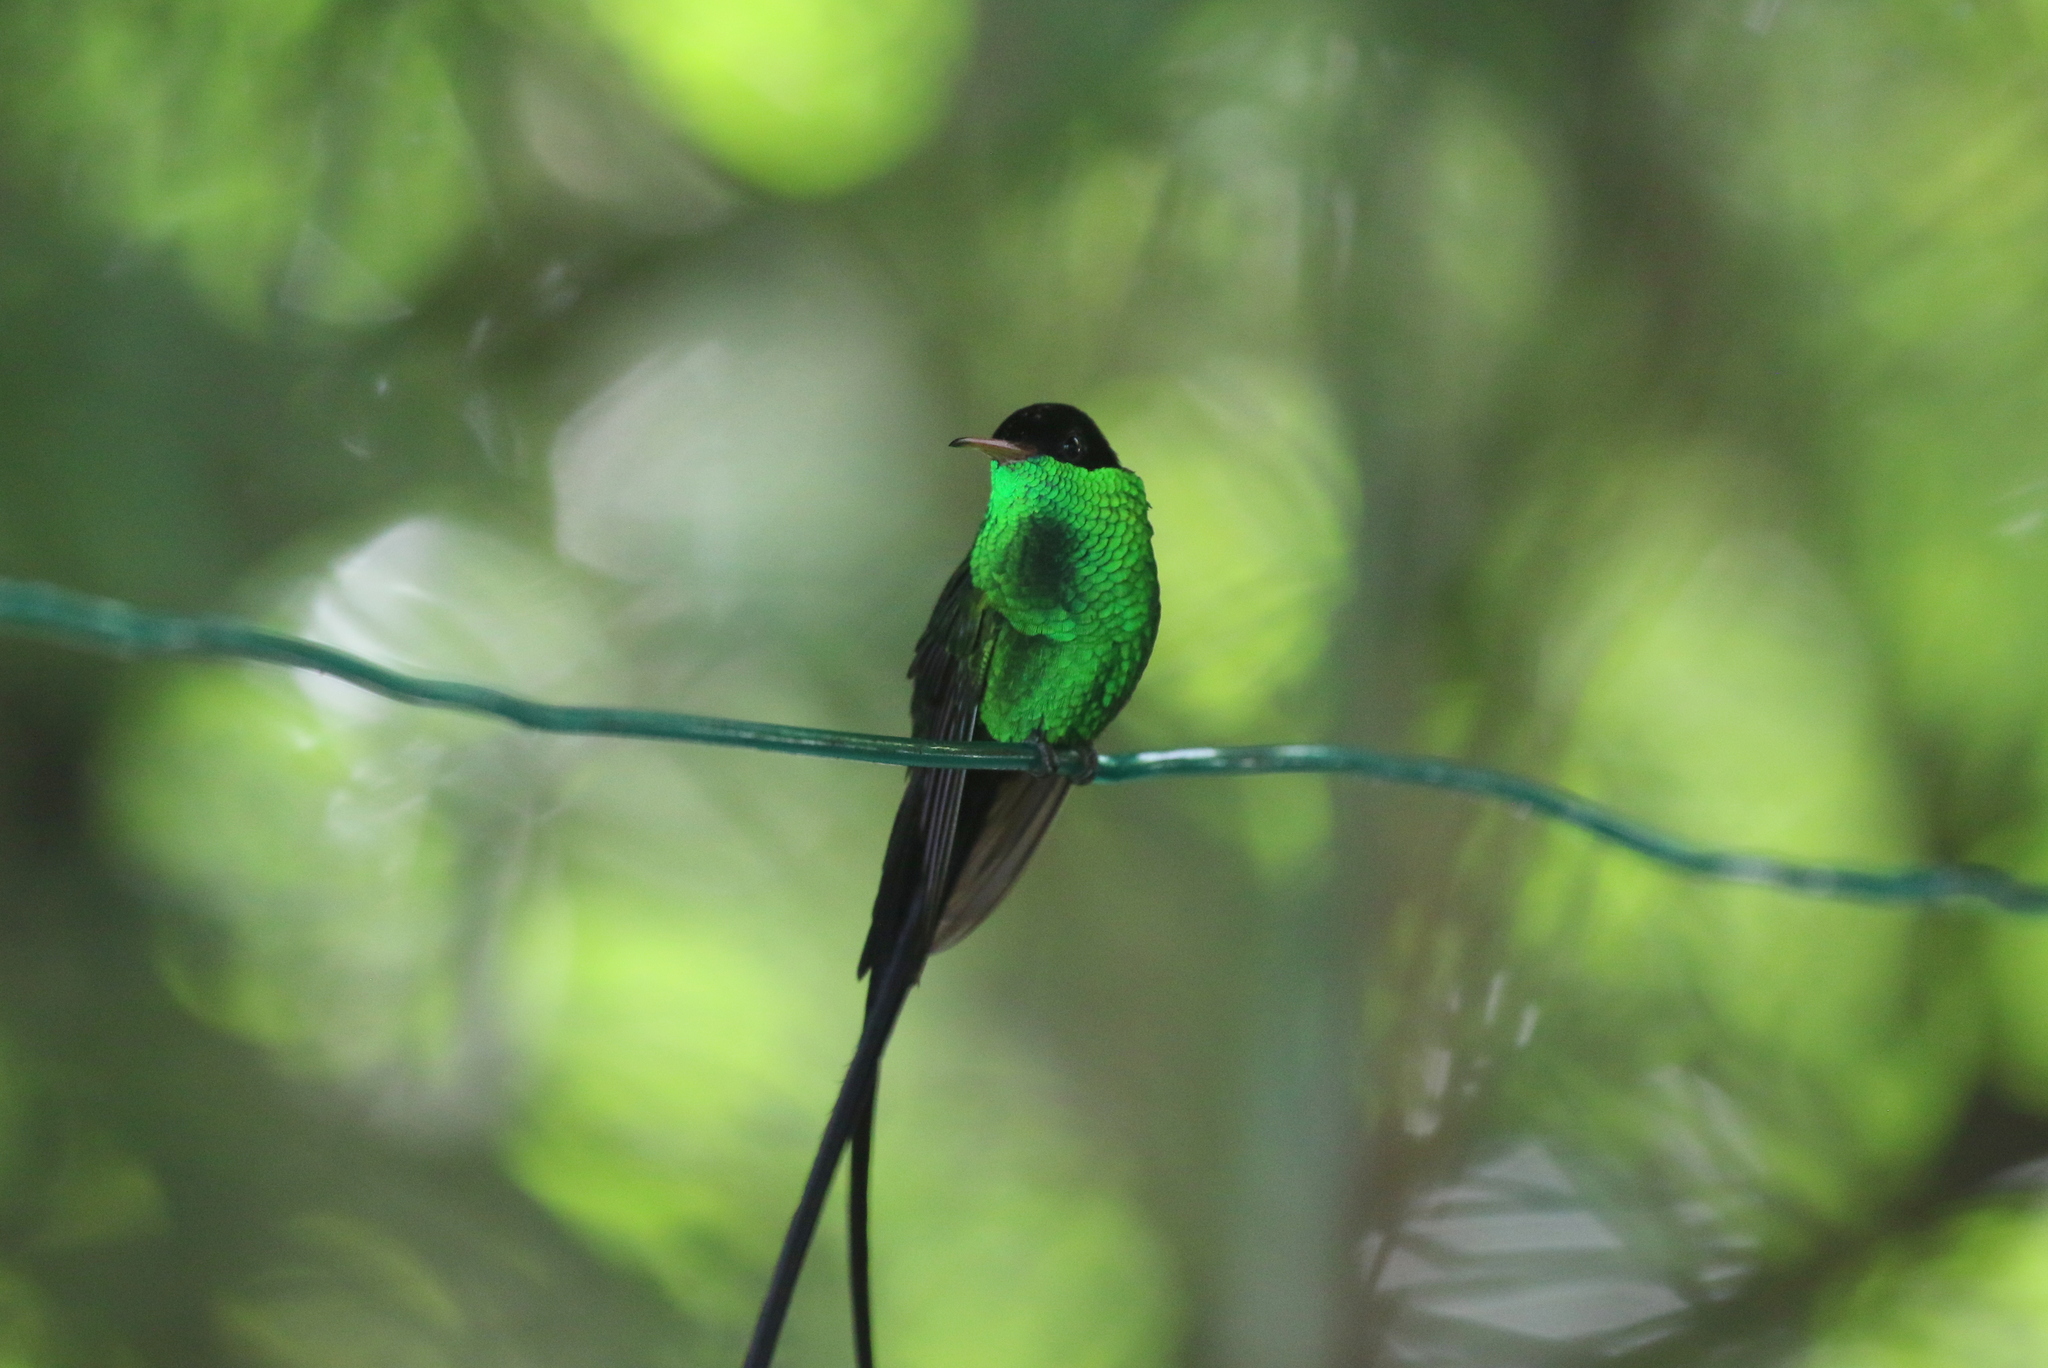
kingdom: Animalia
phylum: Chordata
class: Aves
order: Apodiformes
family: Trochilidae
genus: Trochilus
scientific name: Trochilus polytmus
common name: Red-billed streamertail
